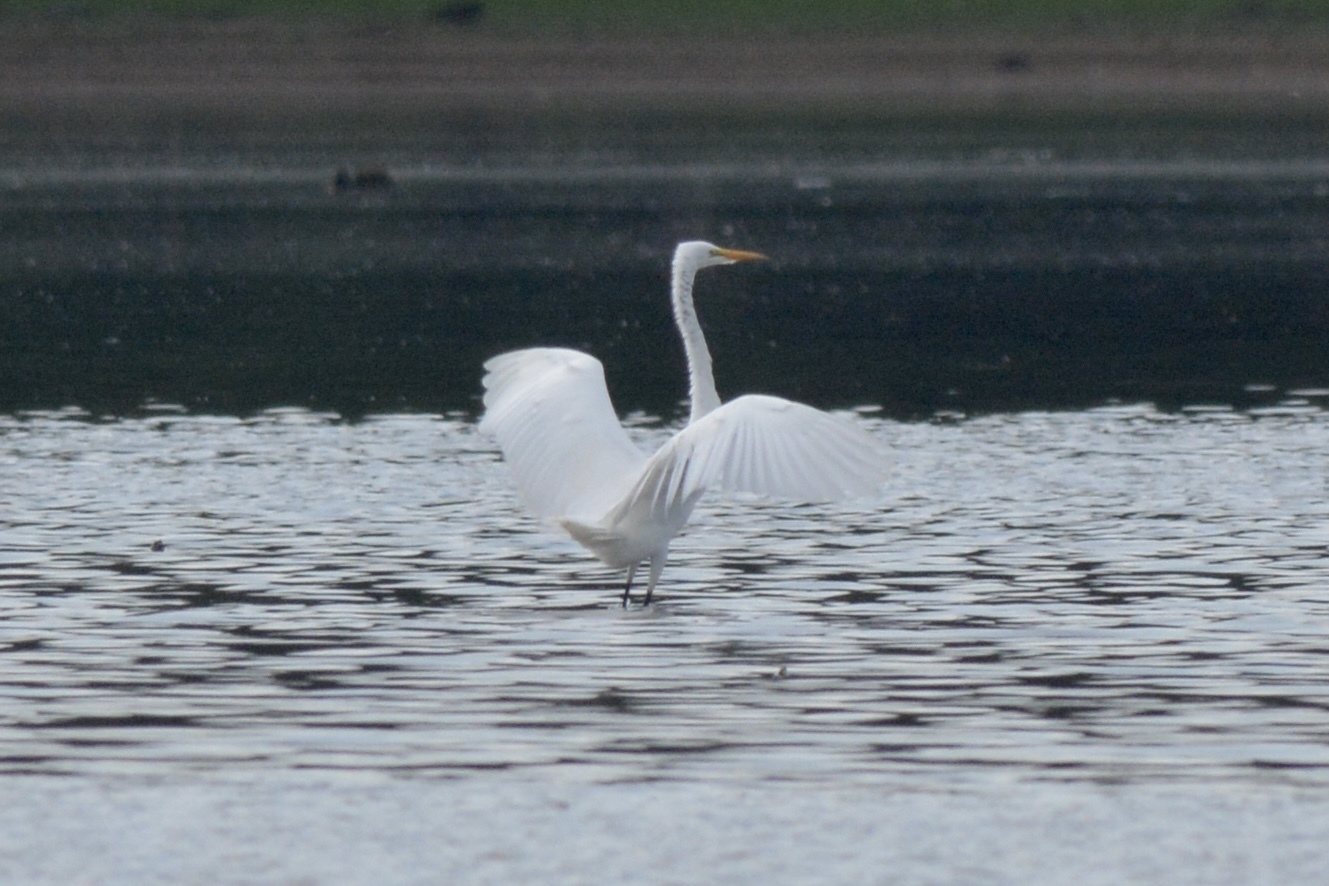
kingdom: Animalia
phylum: Chordata
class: Aves
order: Pelecaniformes
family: Ardeidae
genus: Ardea
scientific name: Ardea alba
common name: Great egret
